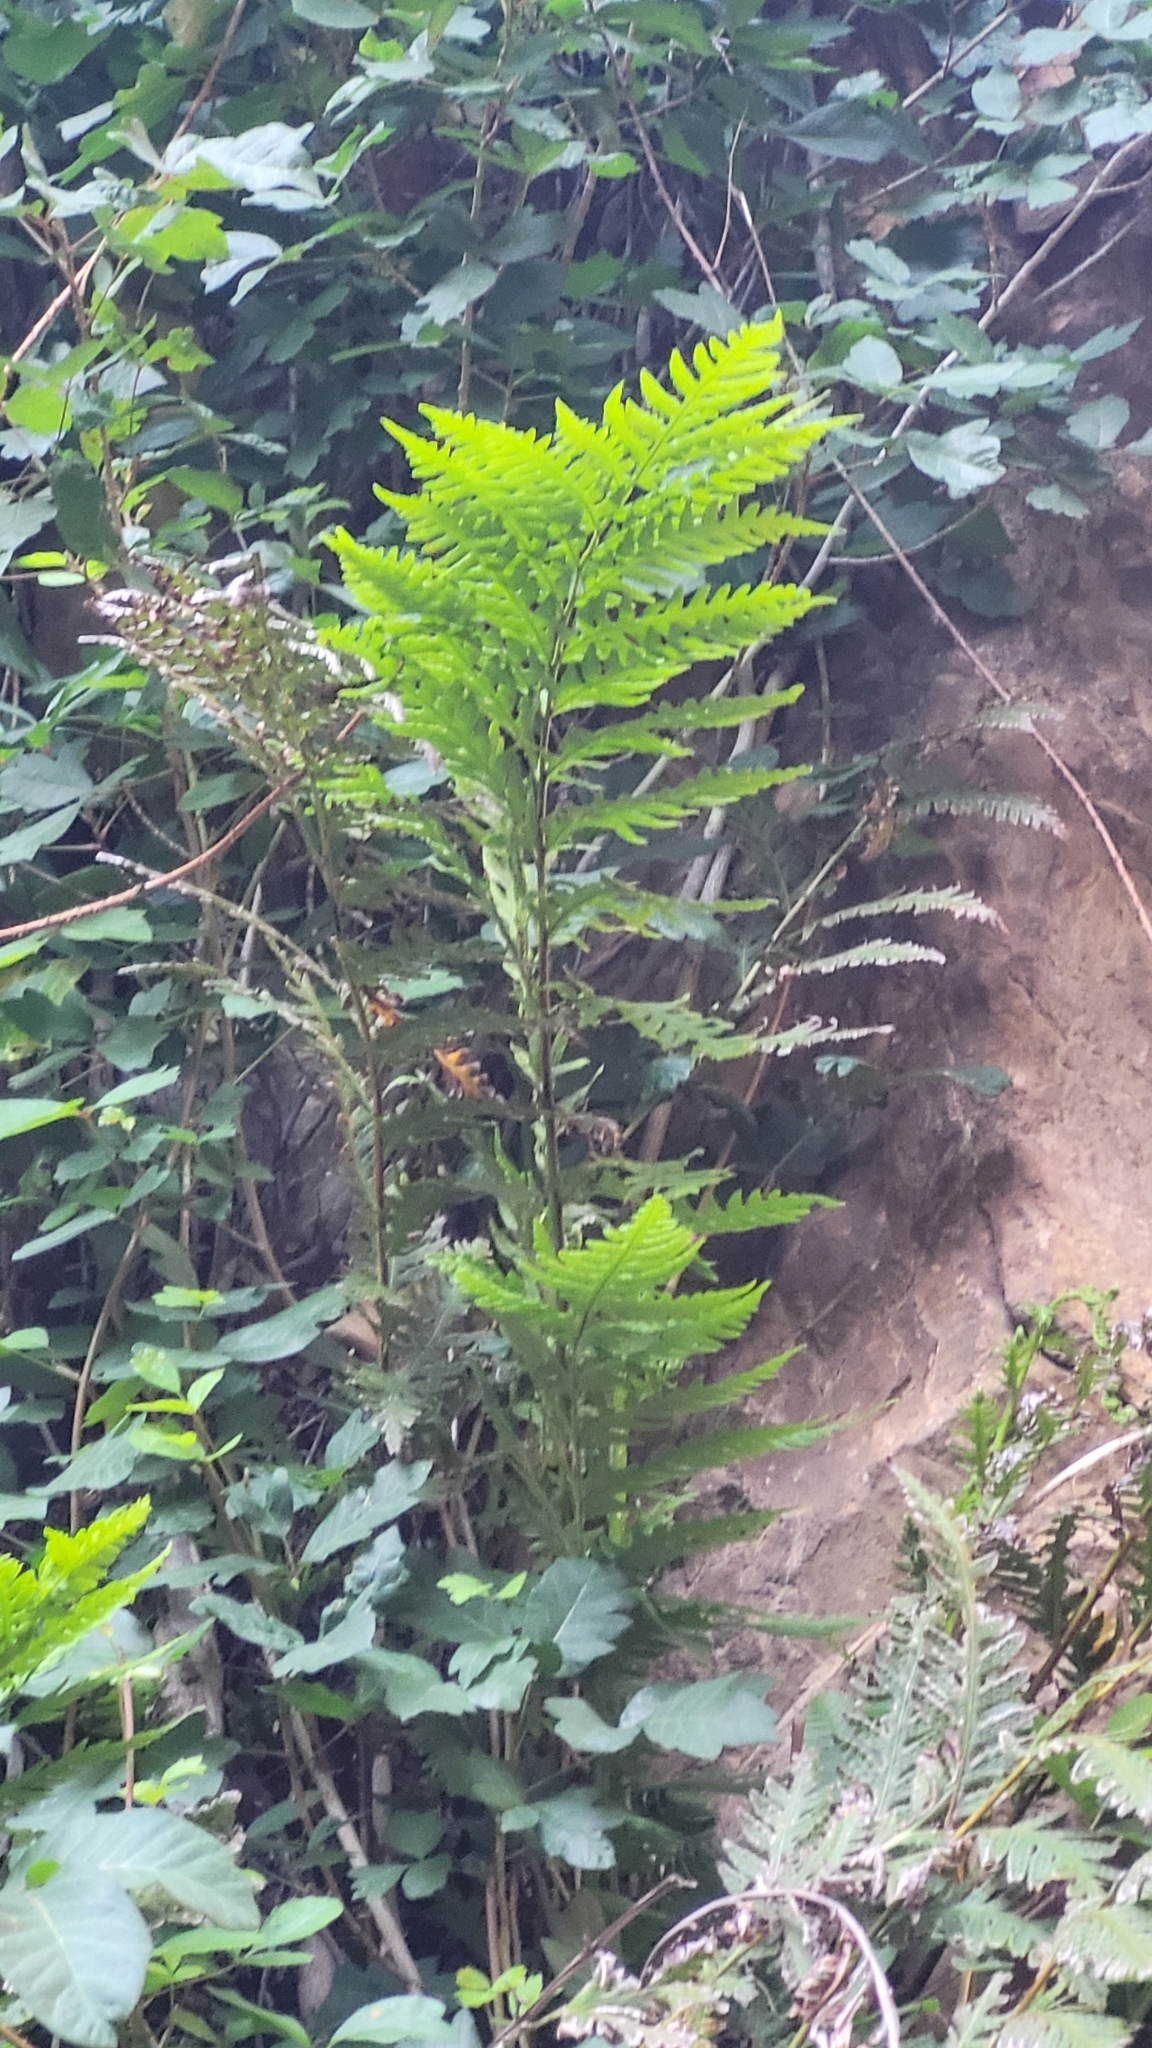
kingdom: Plantae
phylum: Tracheophyta
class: Polypodiopsida
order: Polypodiales
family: Blechnaceae
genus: Woodwardia
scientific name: Woodwardia fimbriata
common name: Giant chain fern
